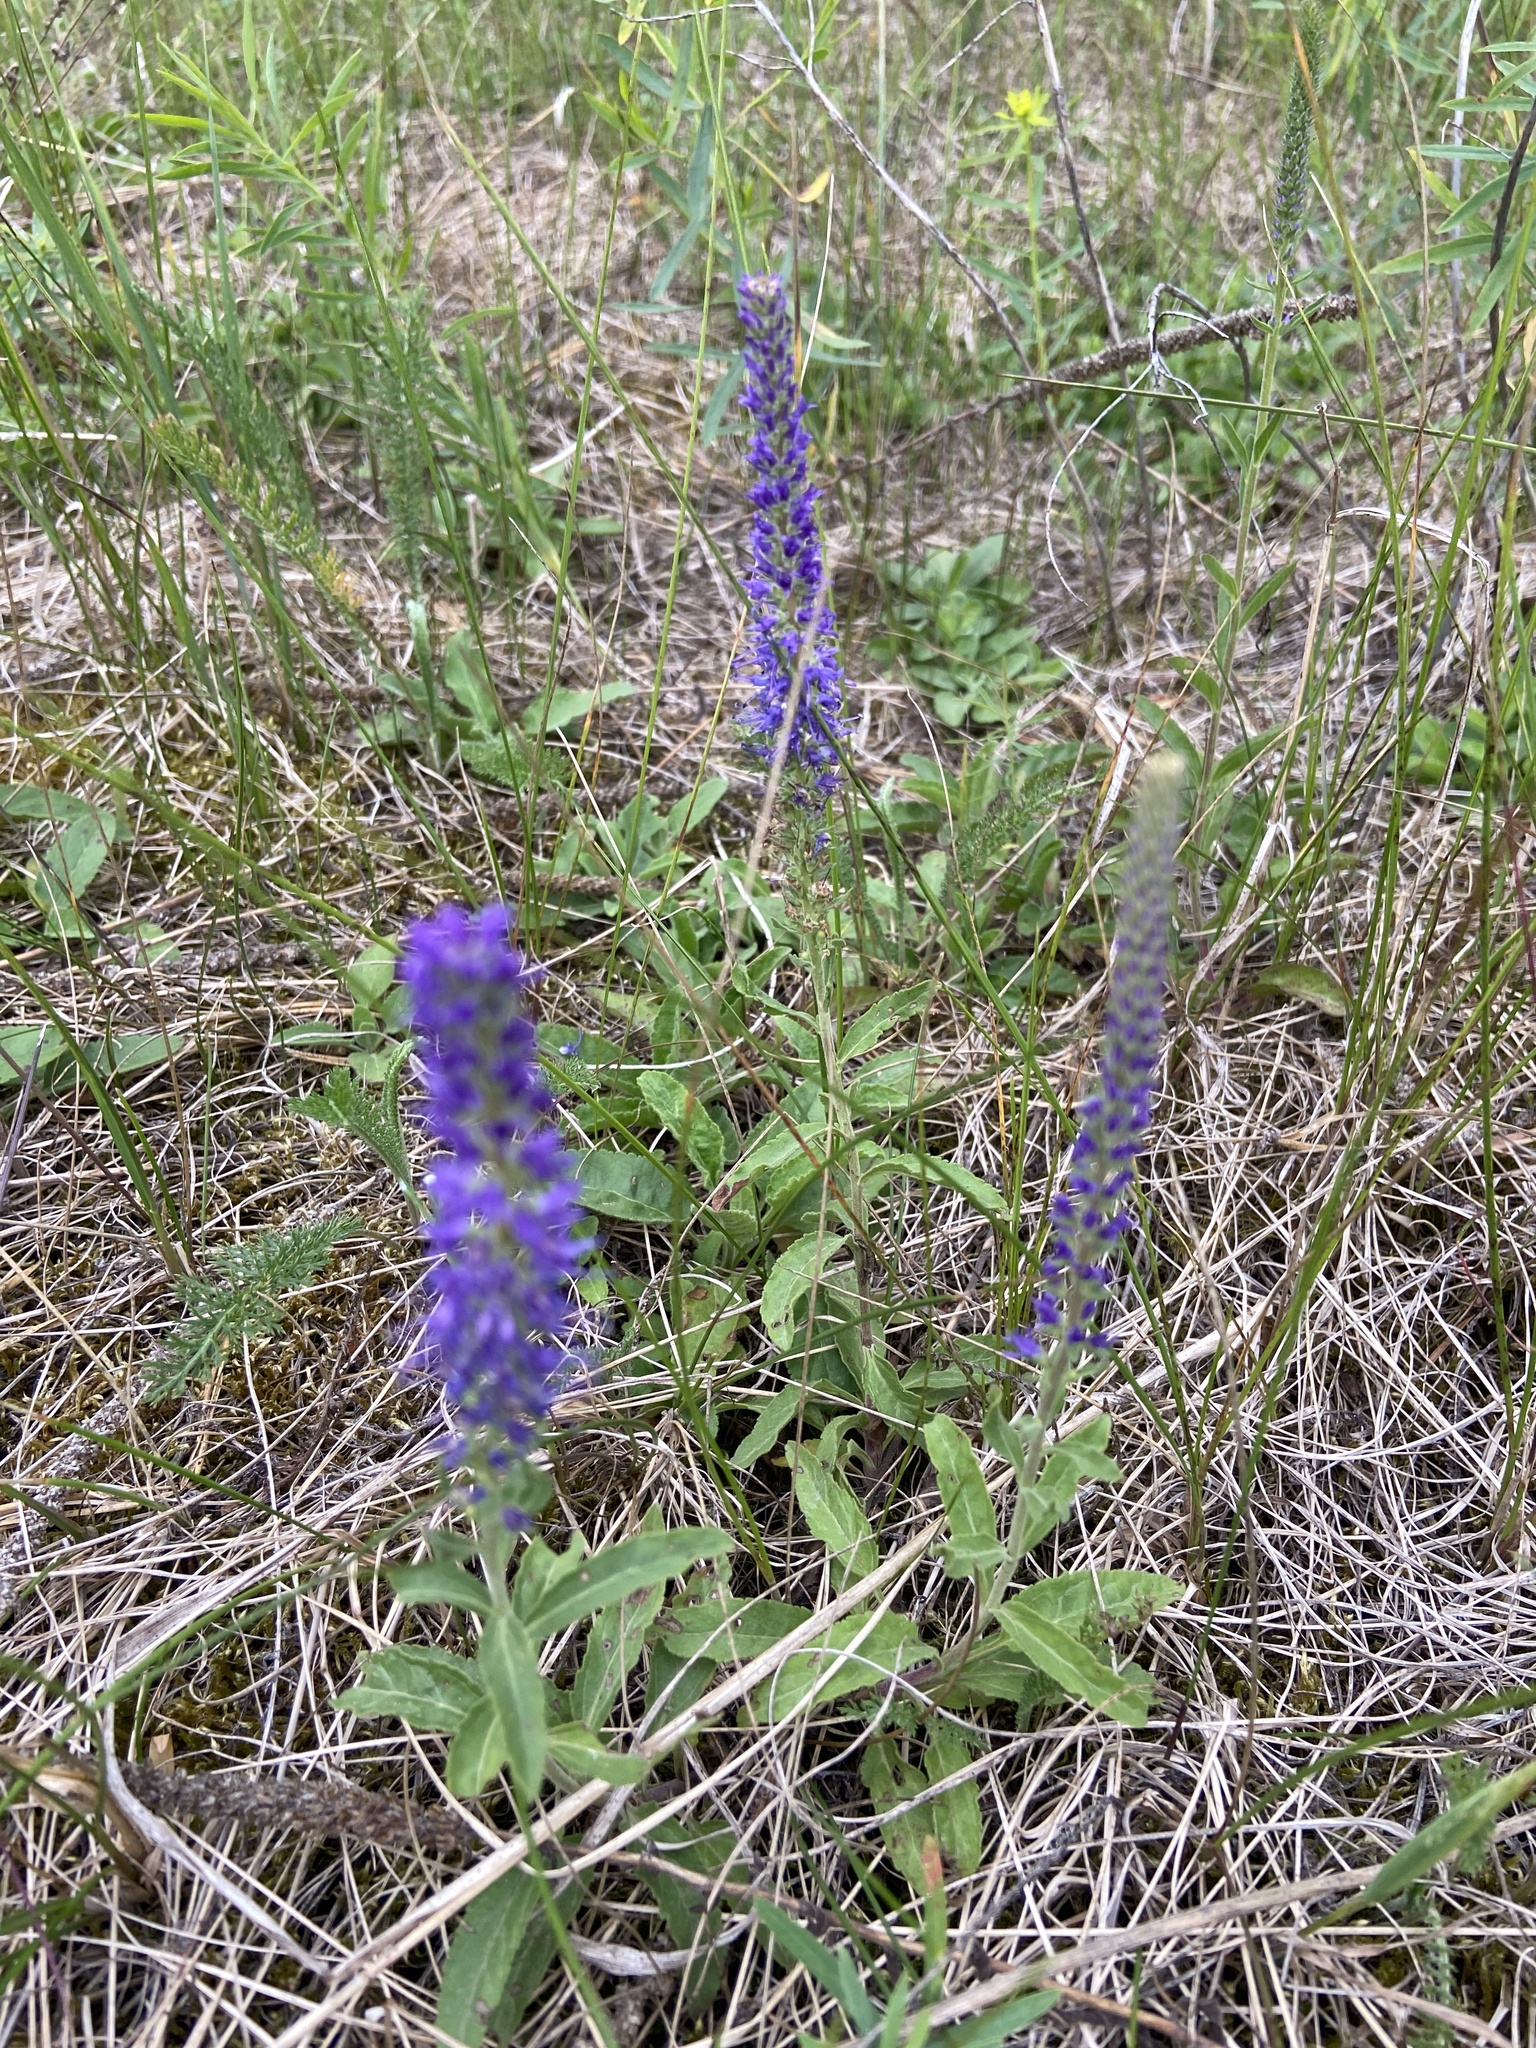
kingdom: Plantae
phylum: Tracheophyta
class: Magnoliopsida
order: Lamiales
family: Plantaginaceae
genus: Veronica
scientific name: Veronica spicata
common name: Spiked speedwell
